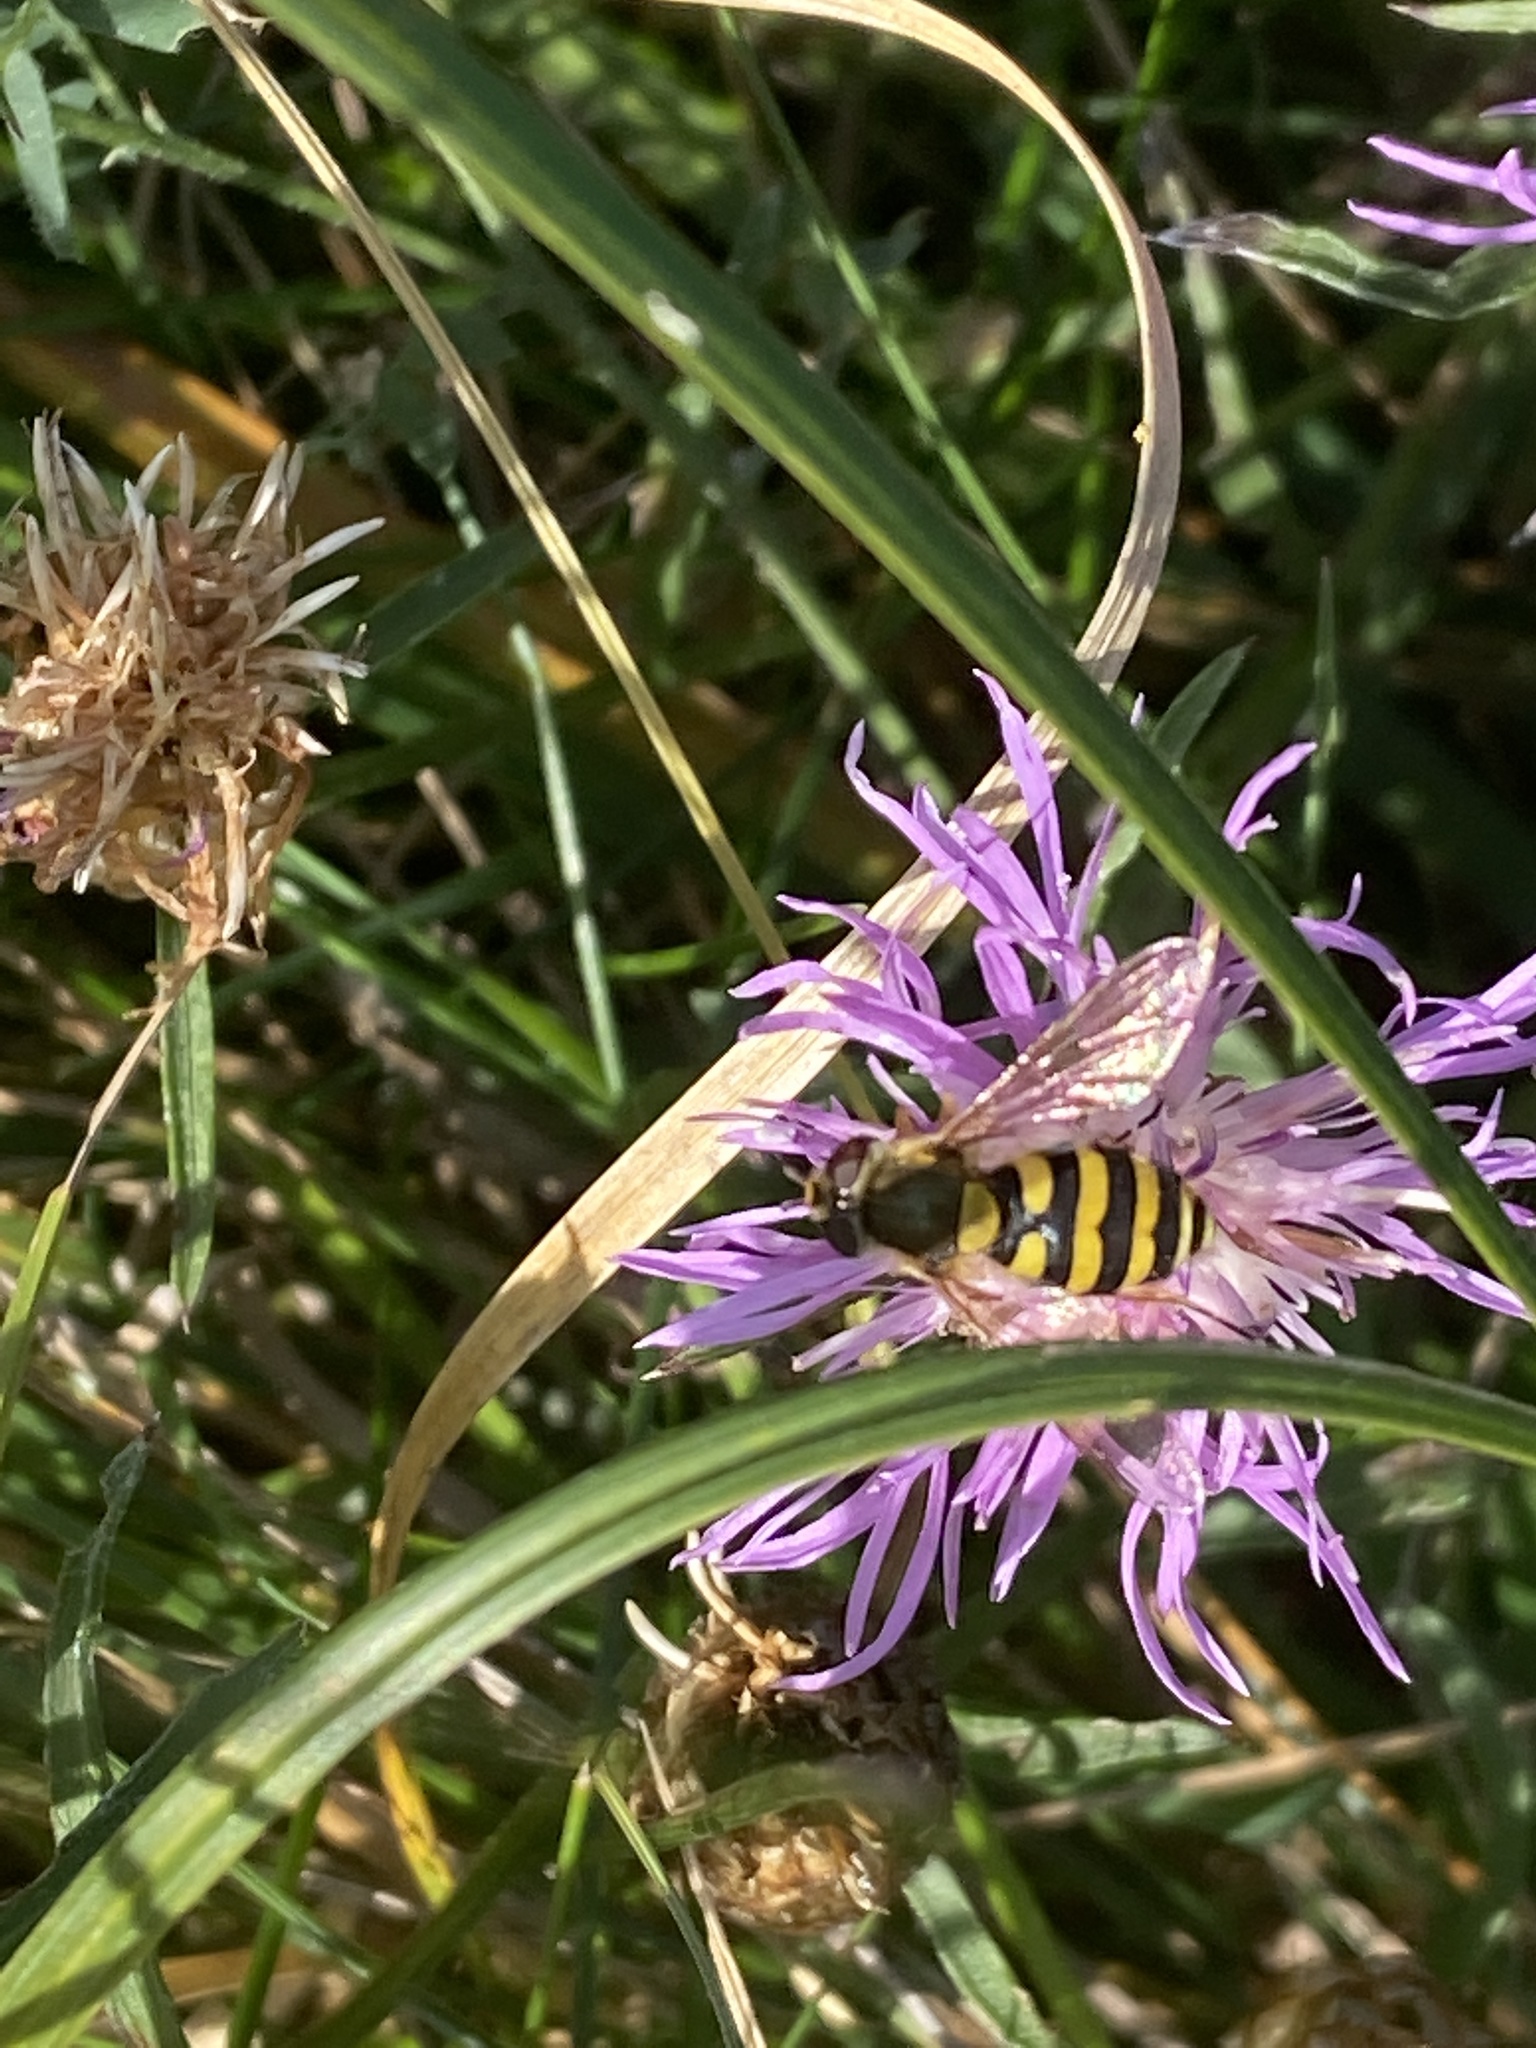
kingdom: Animalia
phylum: Arthropoda
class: Insecta
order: Diptera
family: Syrphidae
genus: Syrphus
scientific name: Syrphus
